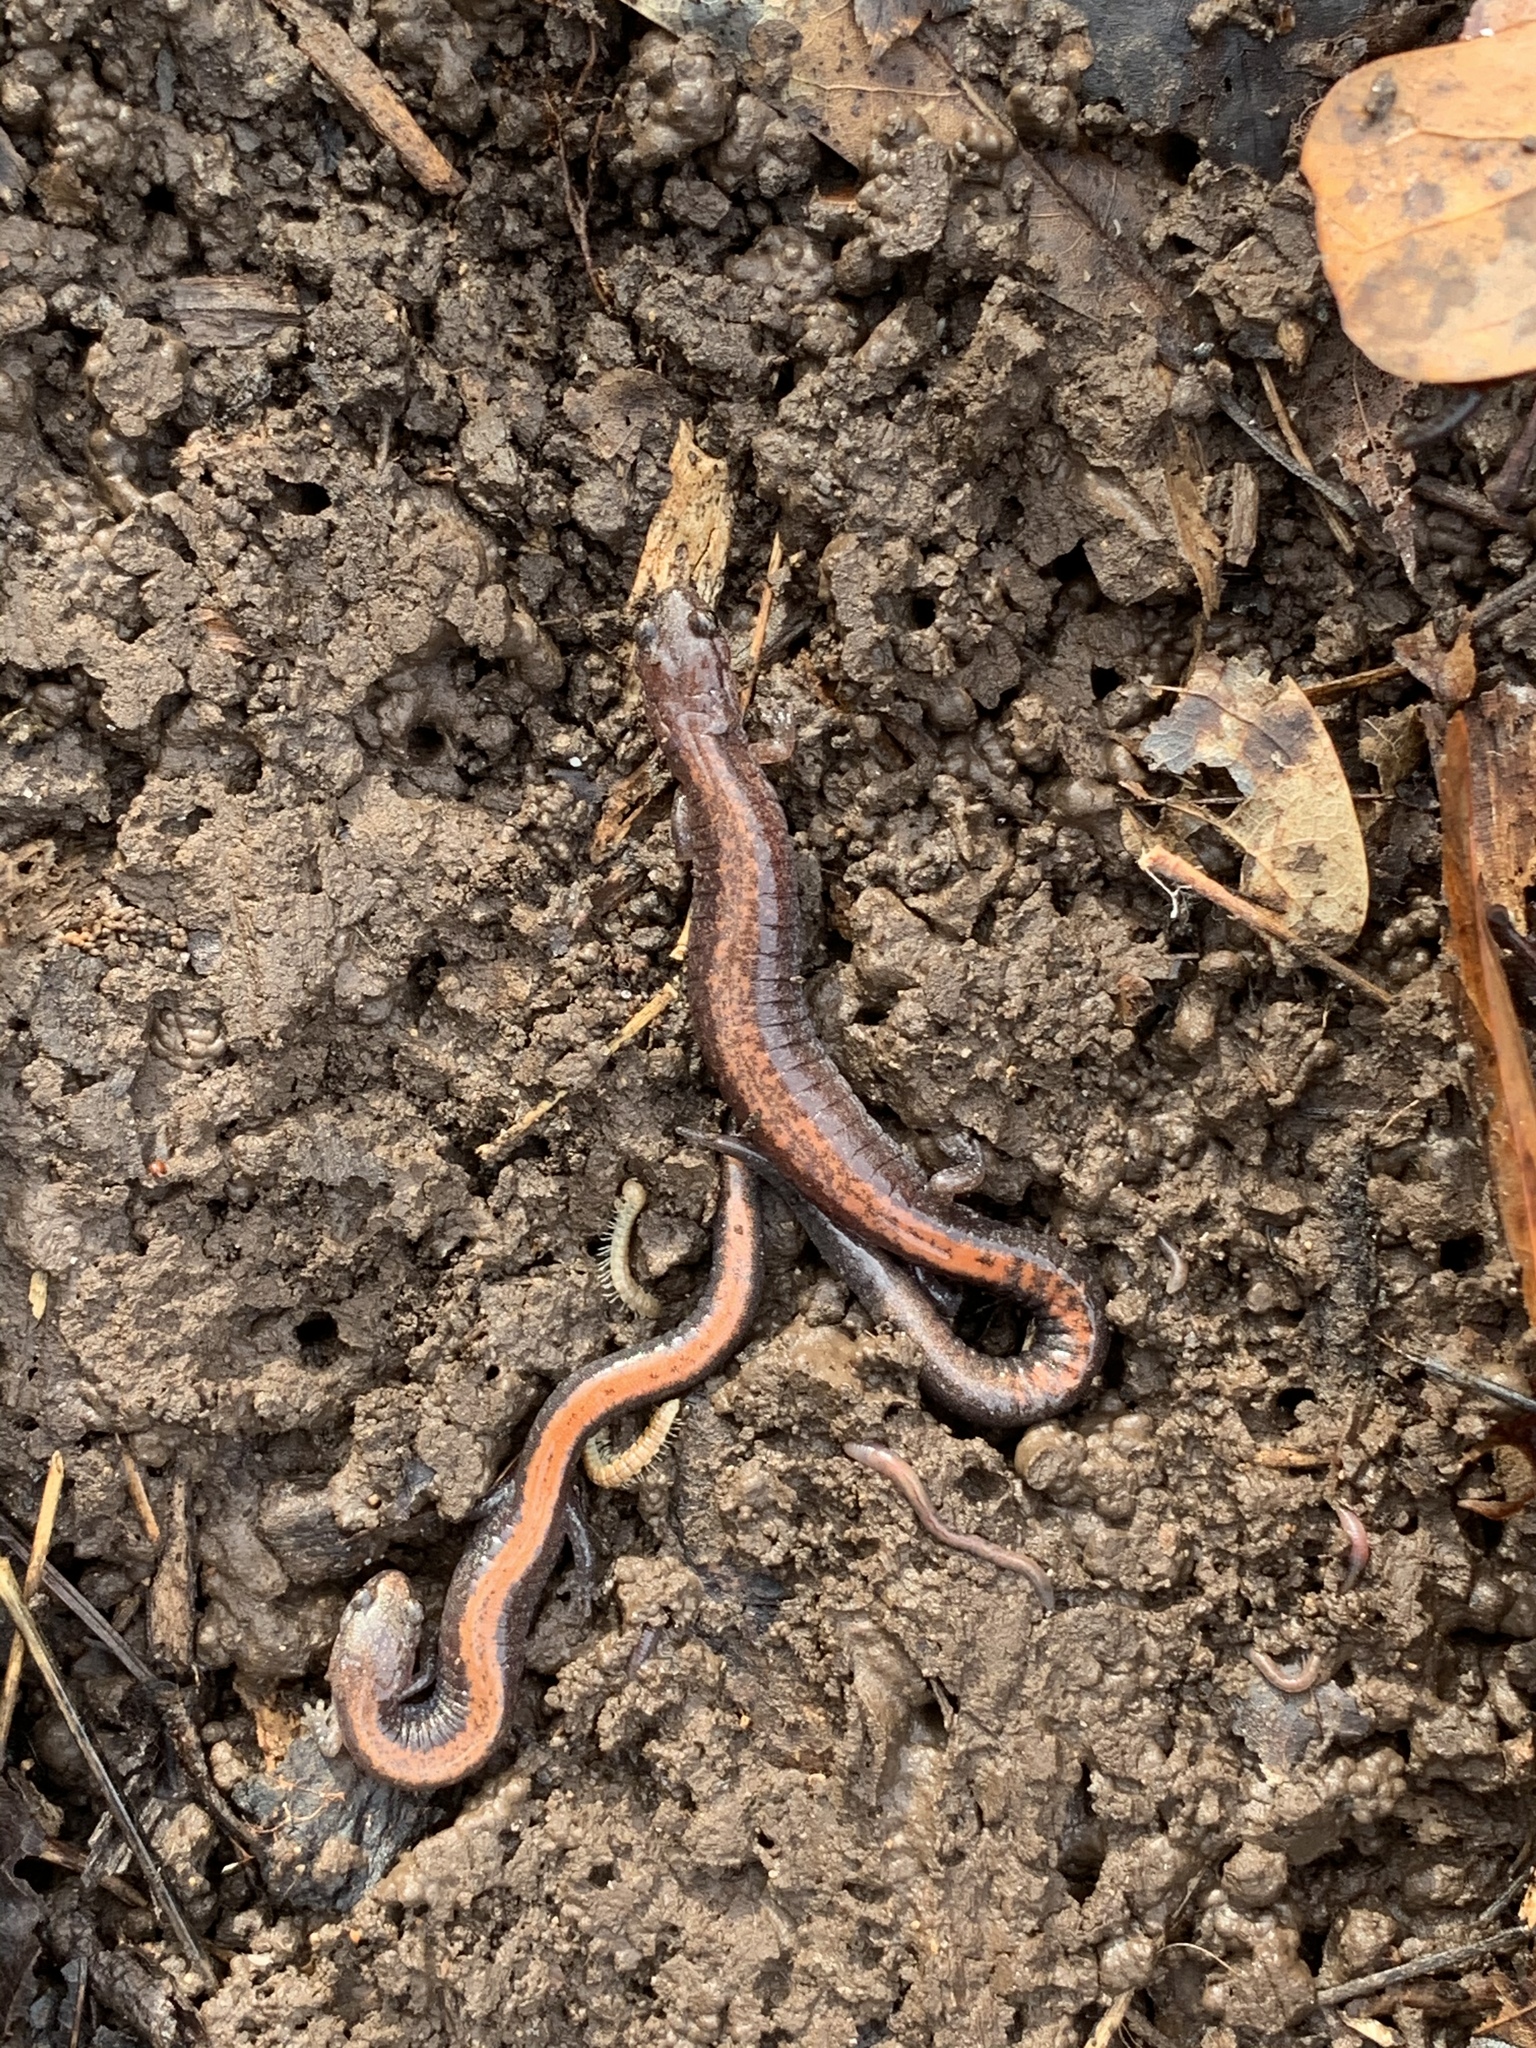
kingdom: Animalia
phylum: Chordata
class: Amphibia
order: Caudata
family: Plethodontidae
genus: Plethodon
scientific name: Plethodon cinereus
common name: Redback salamander
